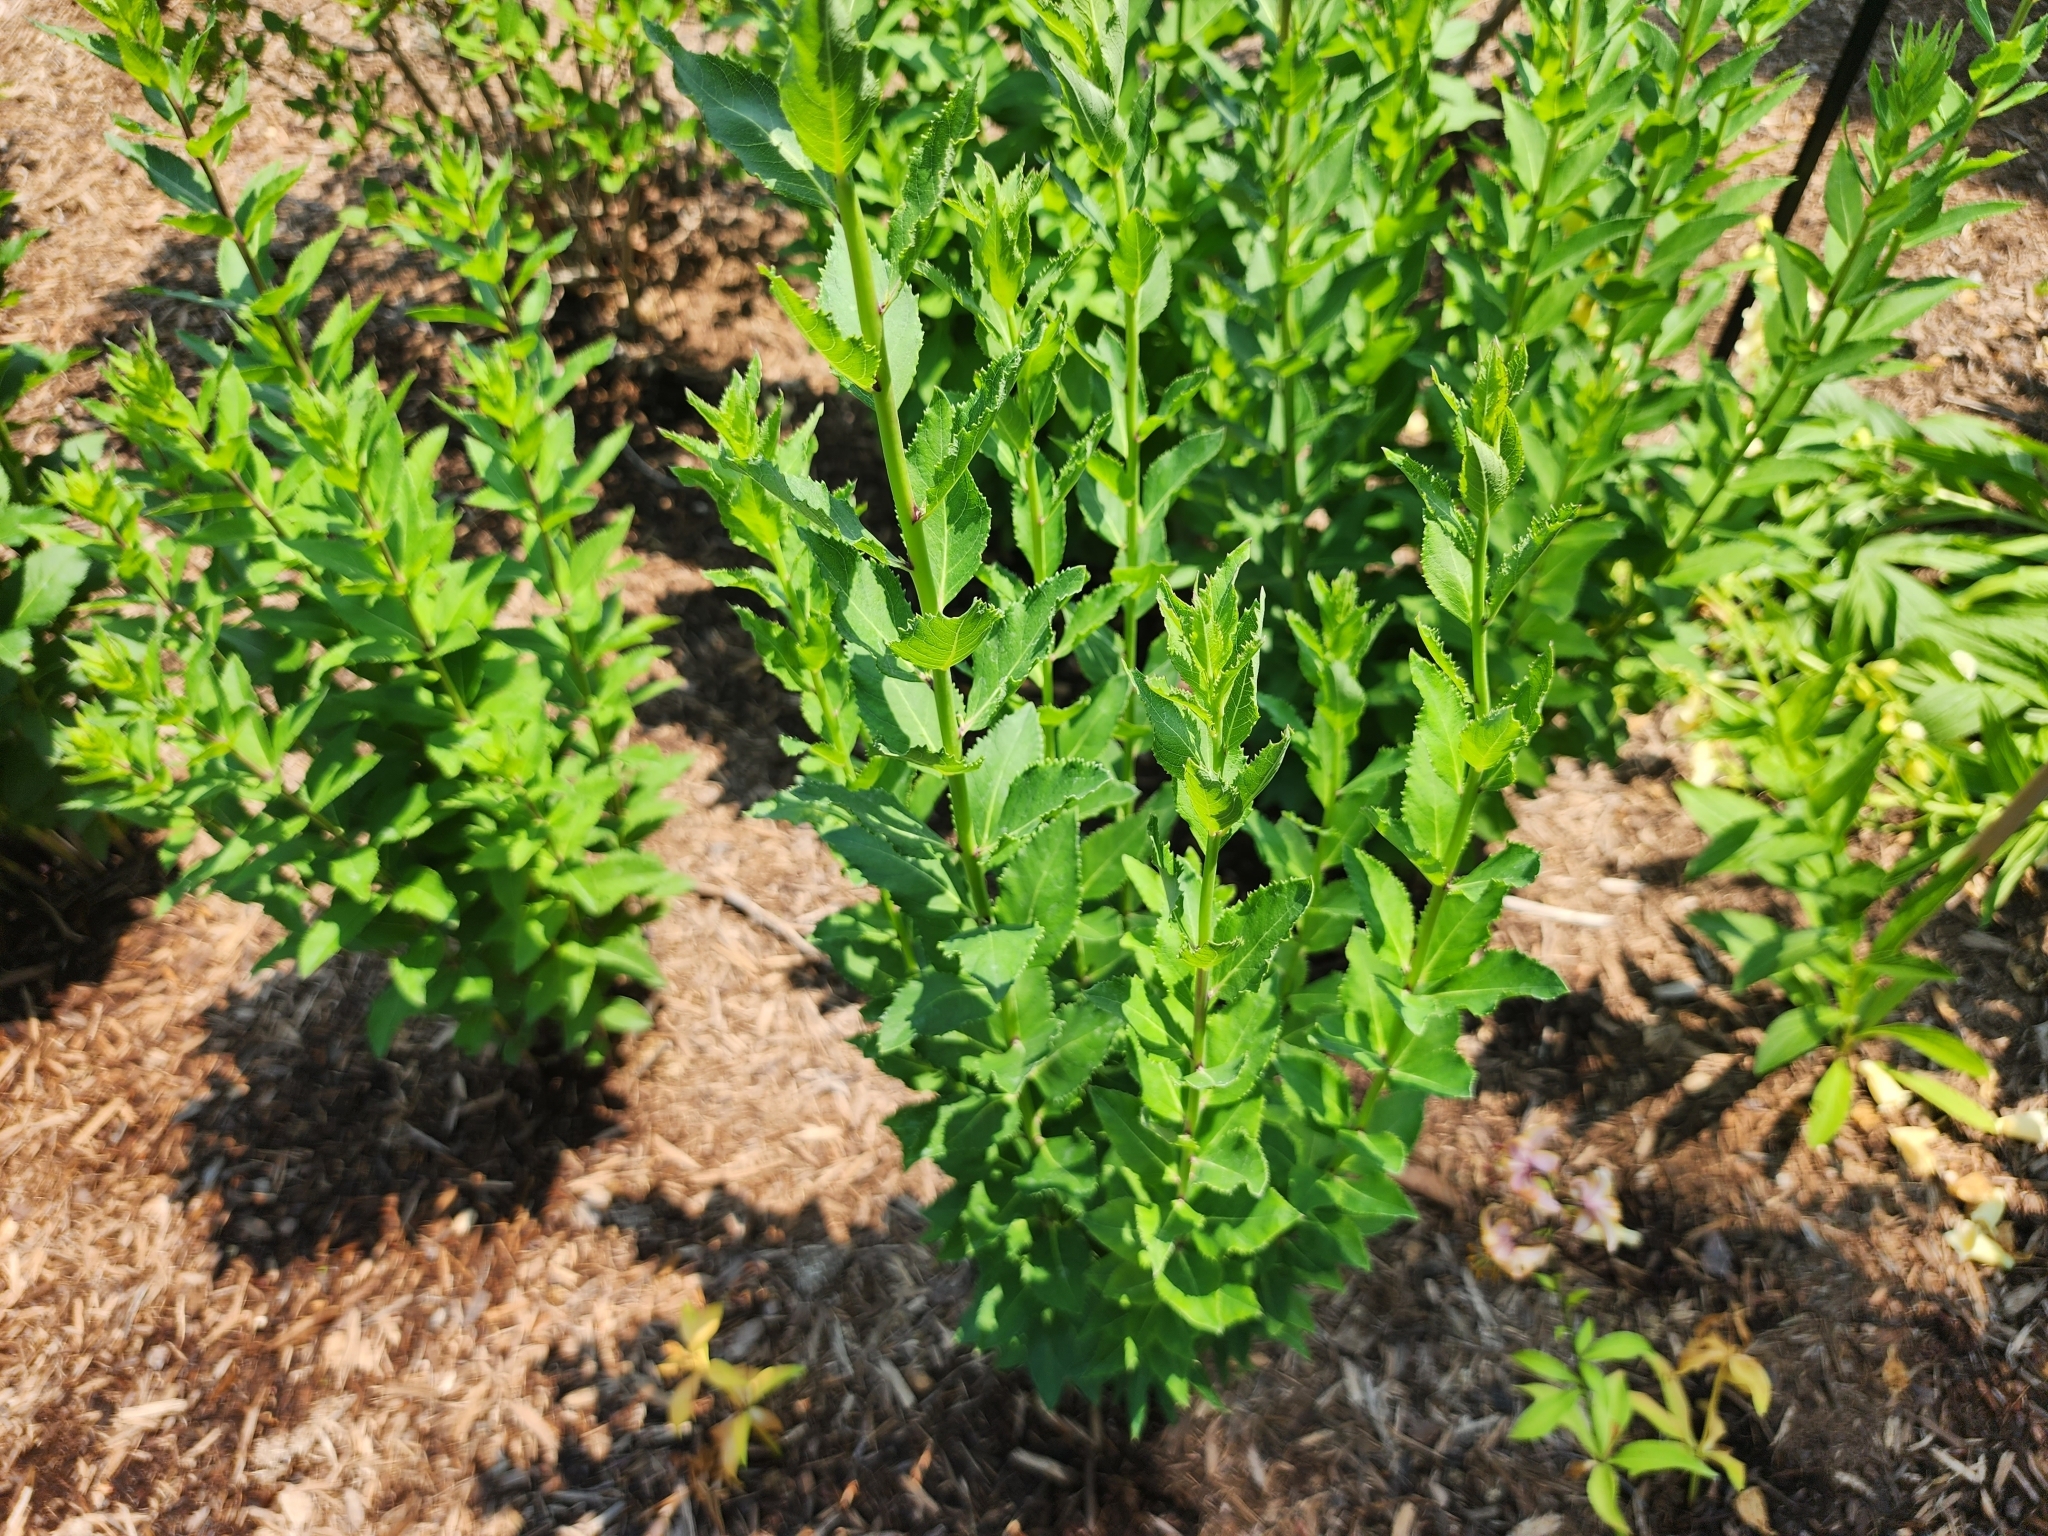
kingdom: Plantae
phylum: Tracheophyta
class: Magnoliopsida
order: Asterales
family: Campanulaceae
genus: Platycodon
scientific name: Platycodon grandiflorus
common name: Balloon-flower
